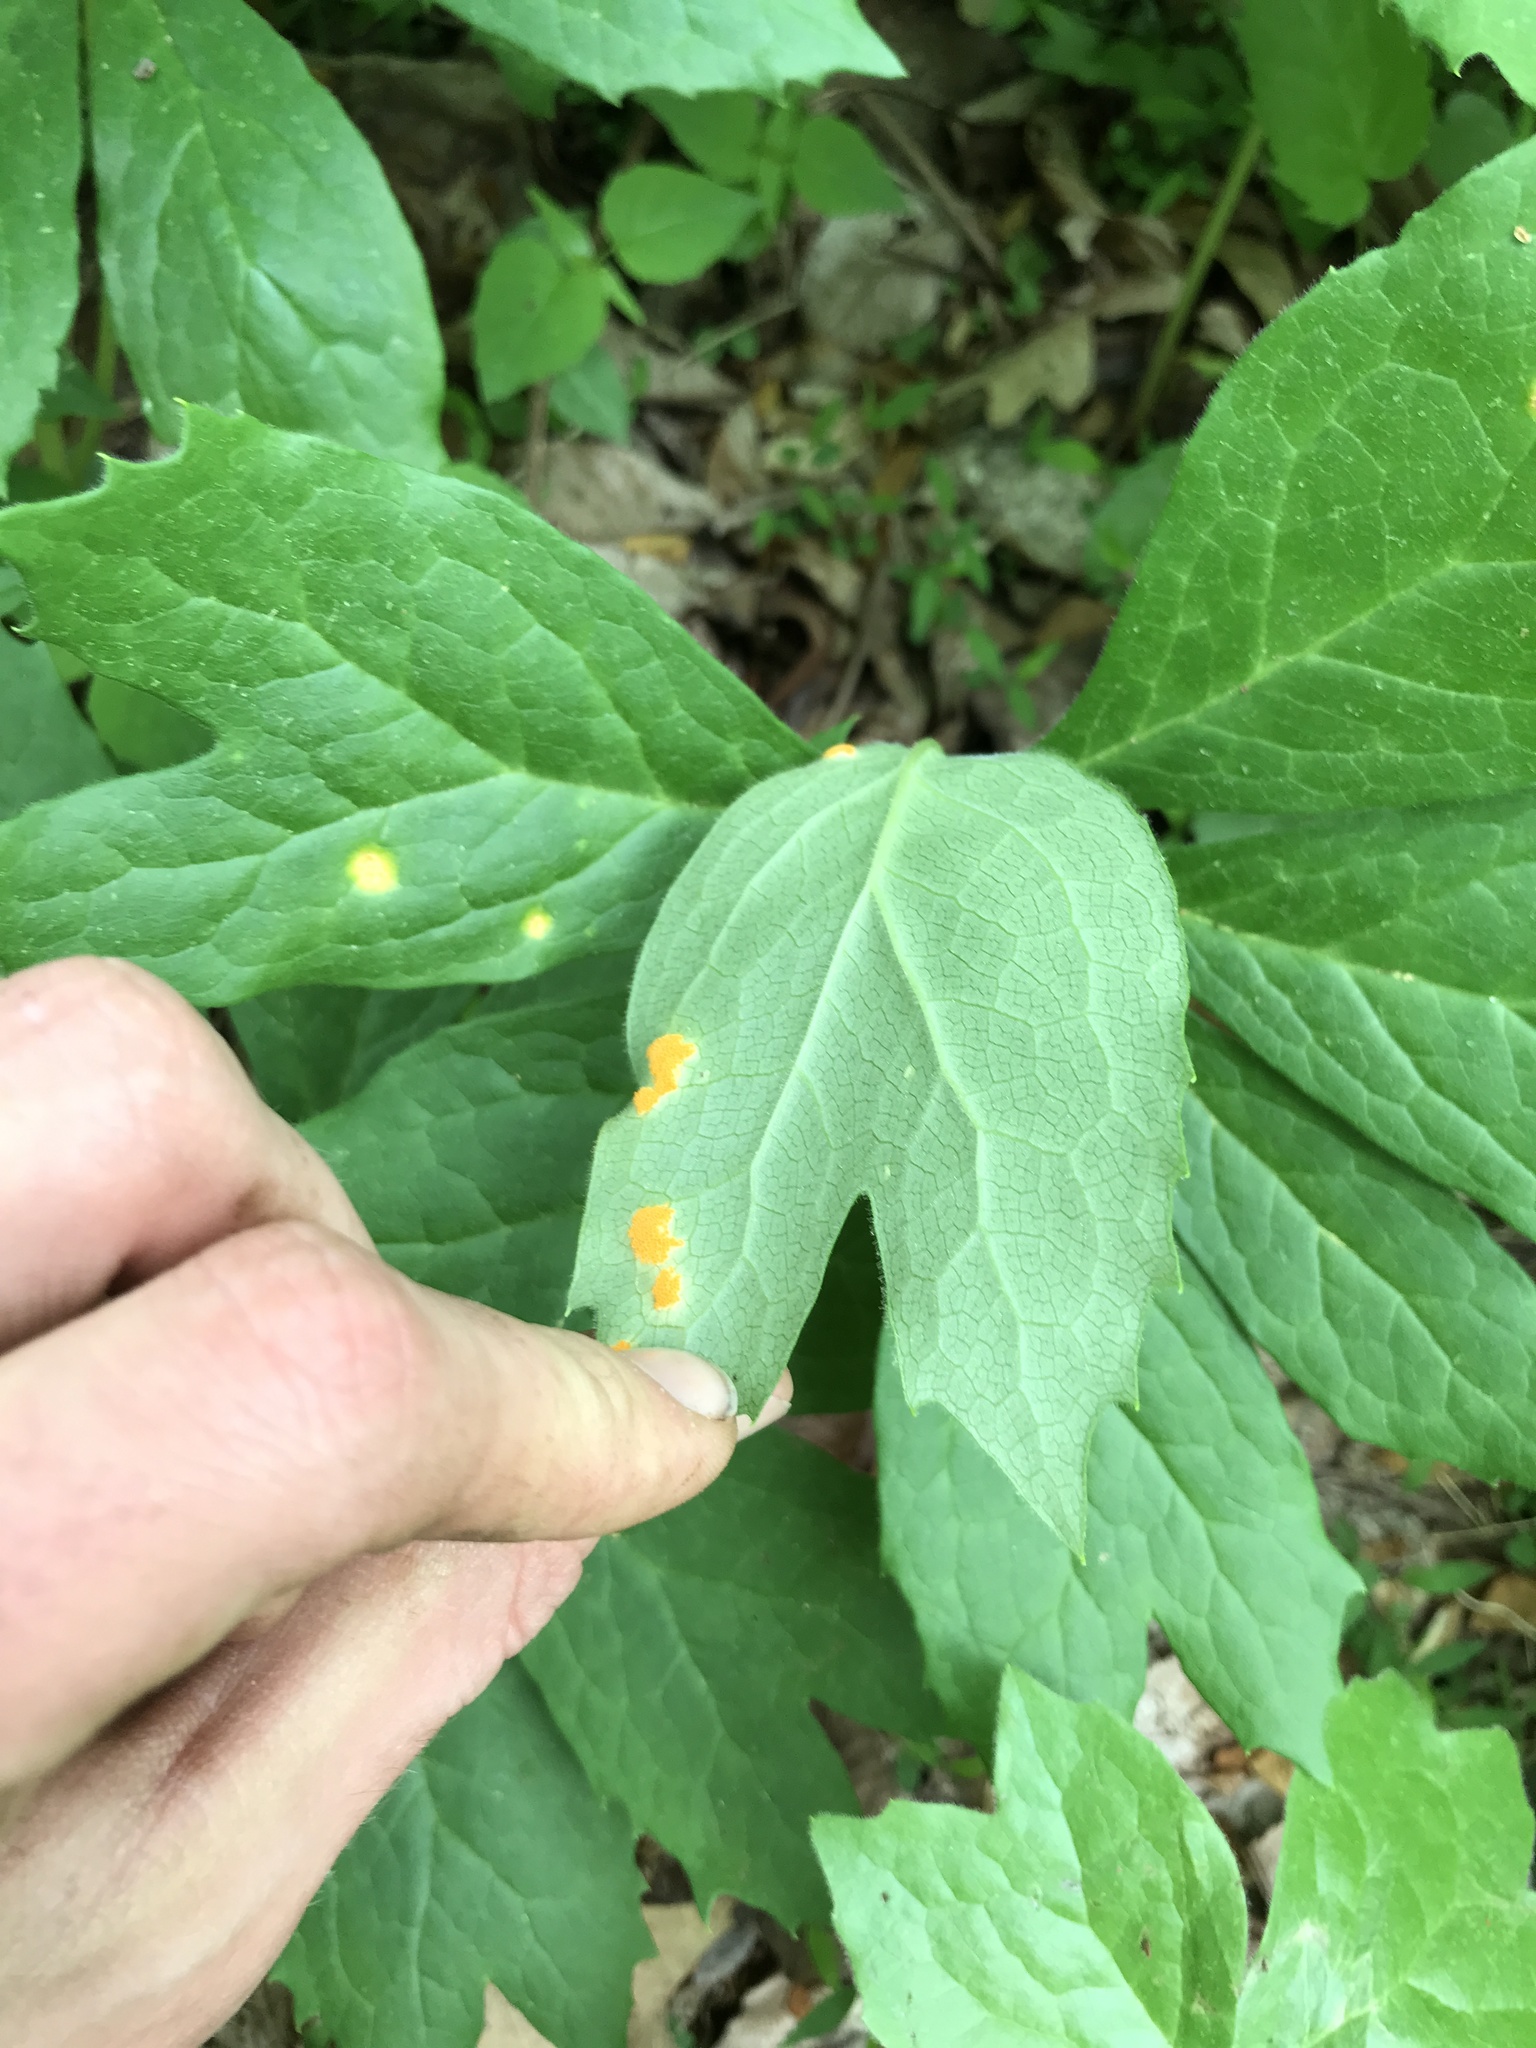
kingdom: Fungi
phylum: Basidiomycota
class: Pucciniomycetes
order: Pucciniales
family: Pucciniaceae
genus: Puccinia
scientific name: Puccinia podophylli
